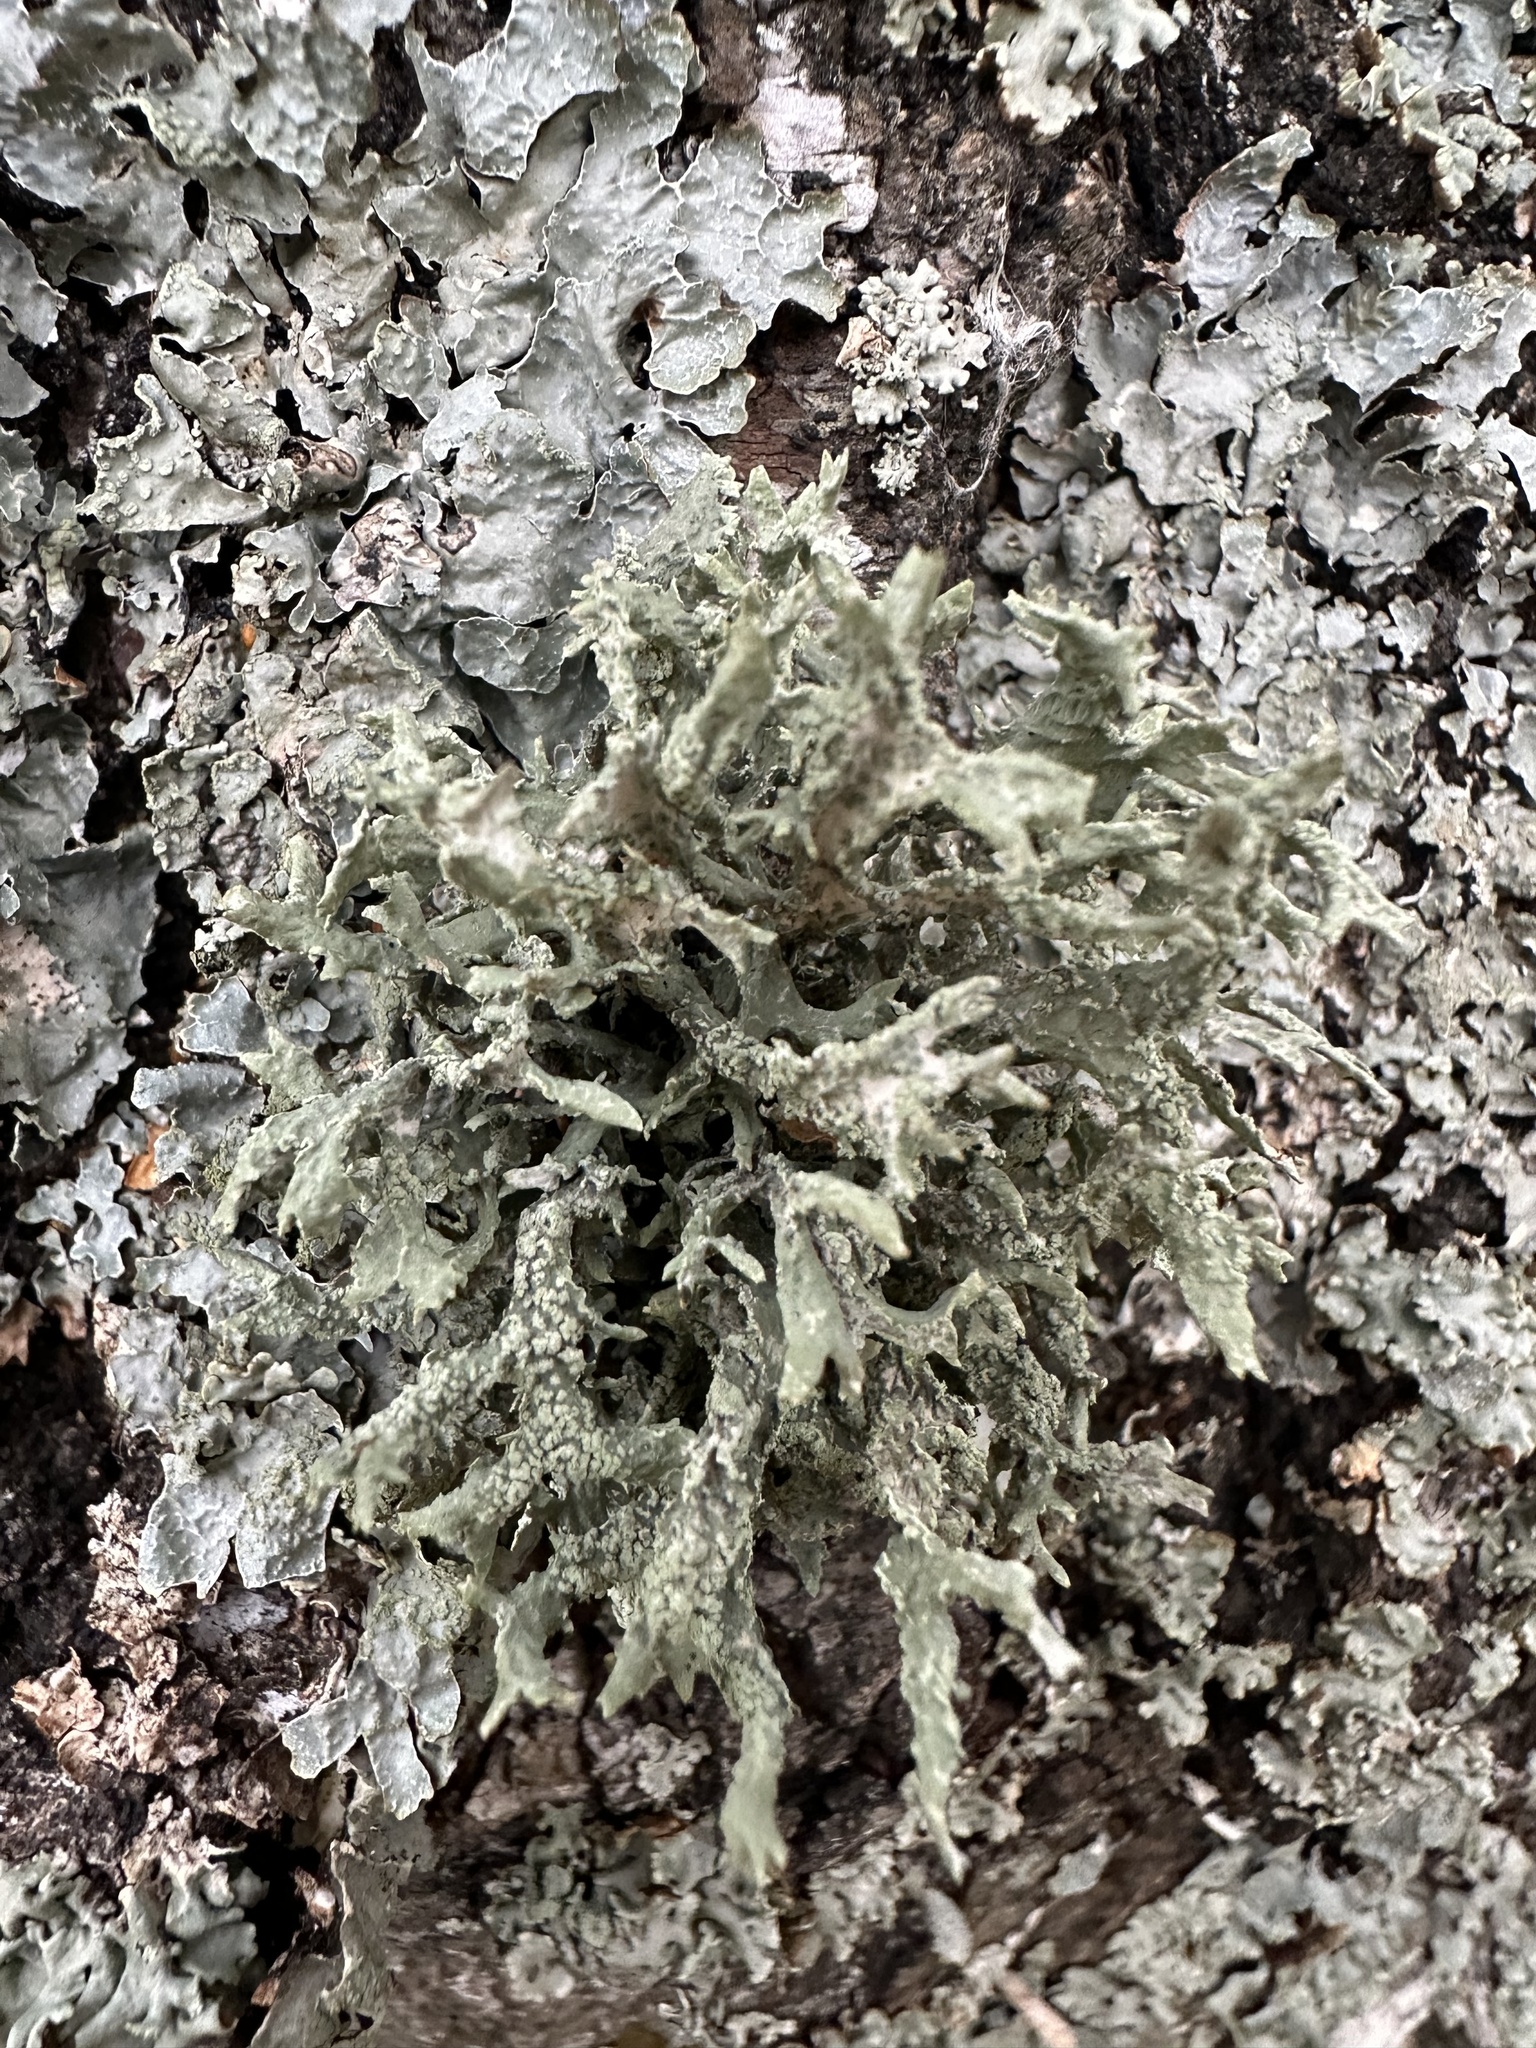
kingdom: Fungi
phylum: Ascomycota
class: Lecanoromycetes
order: Lecanorales
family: Parmeliaceae
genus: Evernia
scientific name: Evernia prunastri
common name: Oak moss
